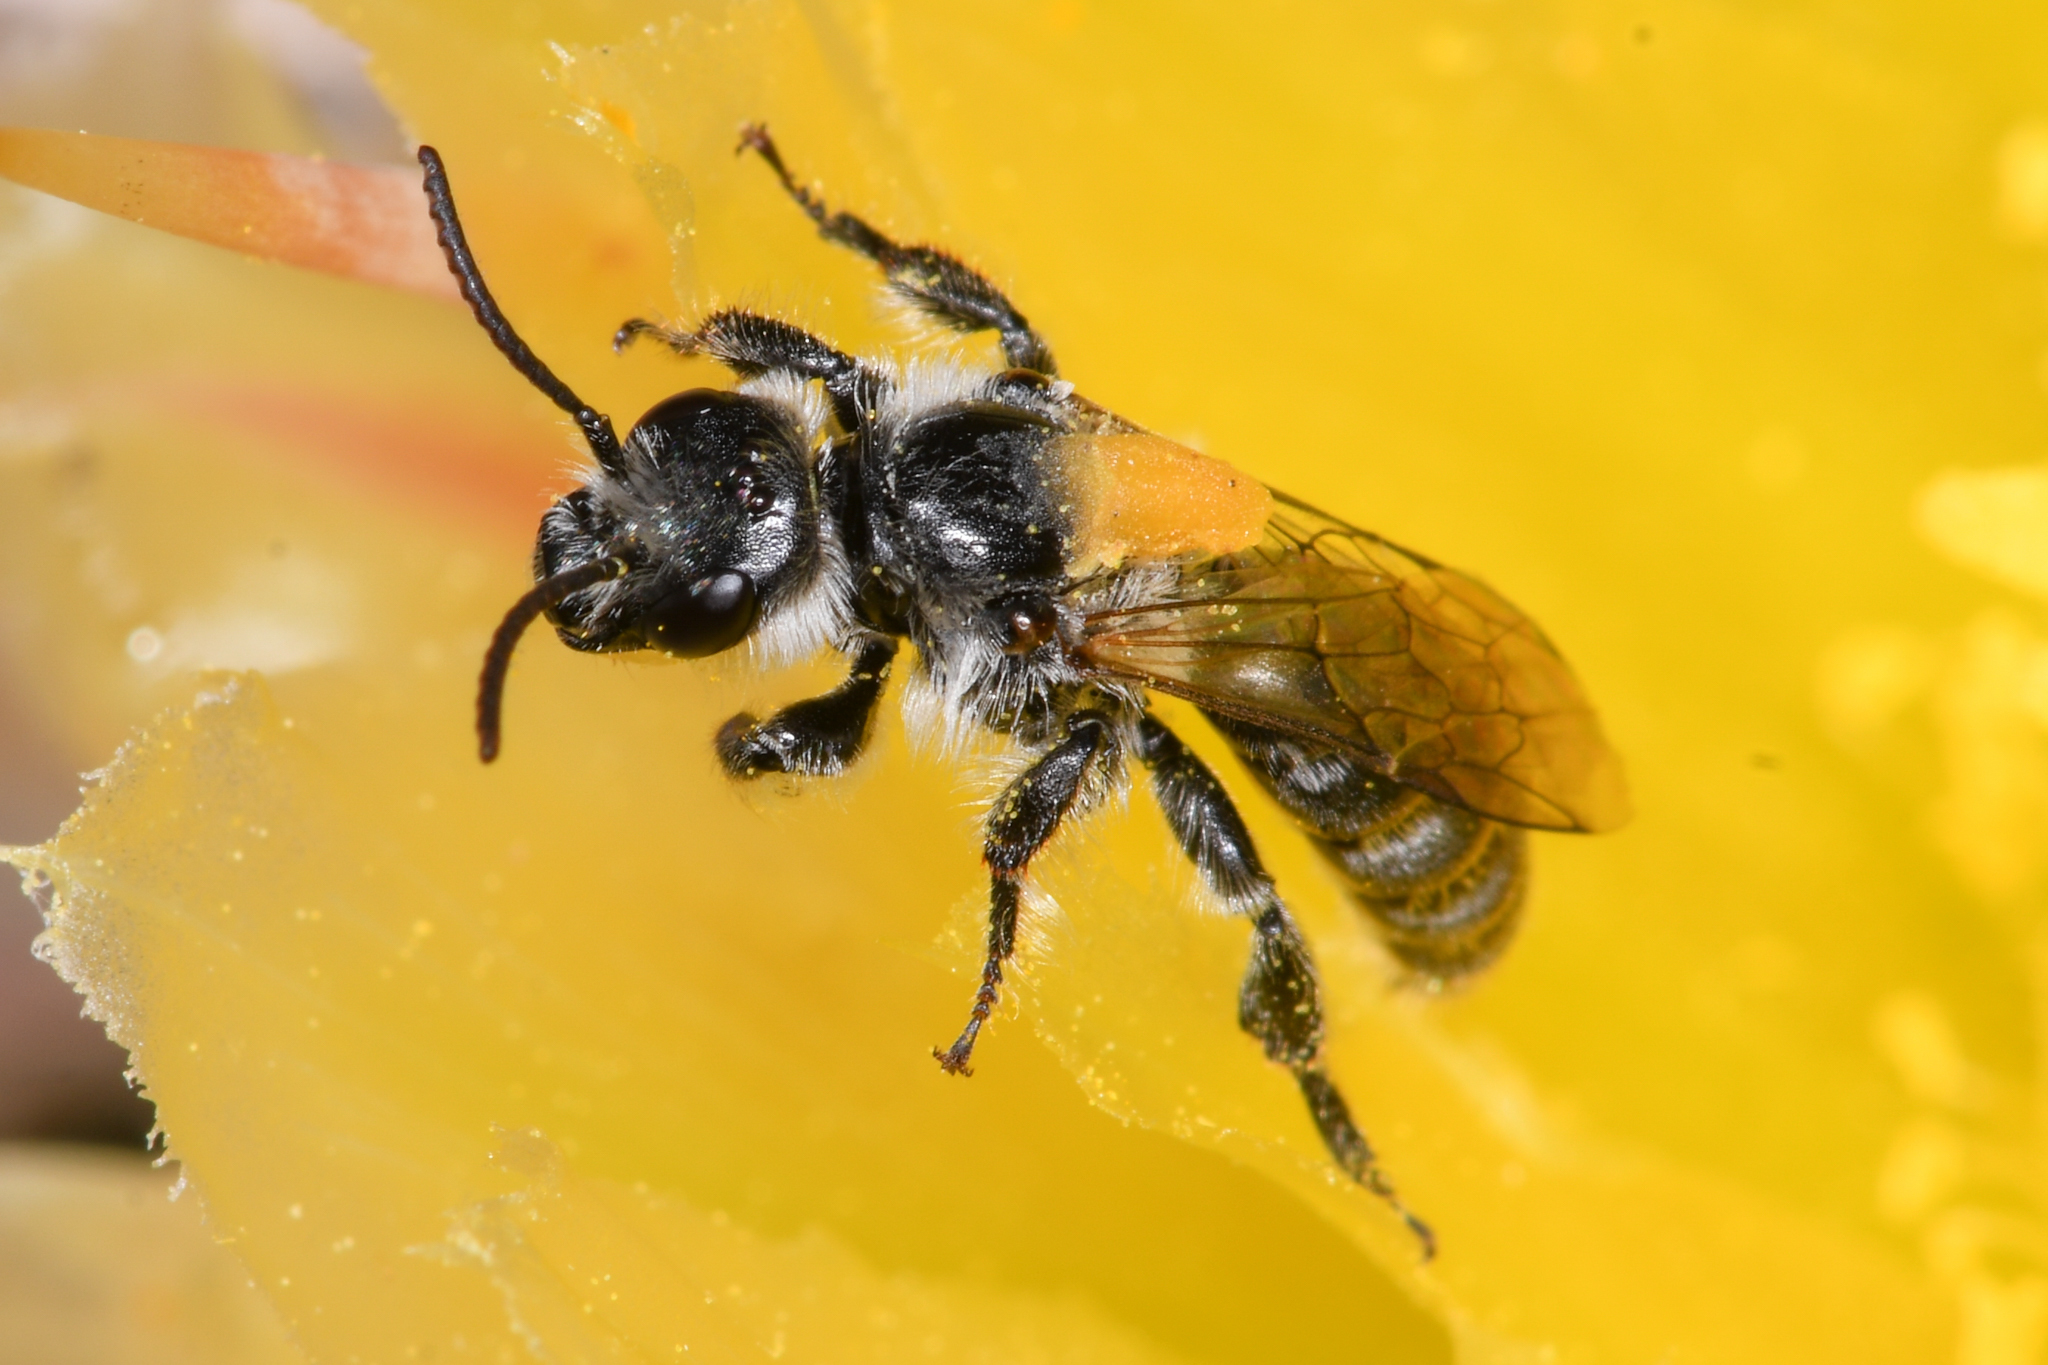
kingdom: Animalia
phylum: Arthropoda
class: Insecta
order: Hymenoptera
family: Halictidae
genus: Dufourea
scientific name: Dufourea echinocacti
